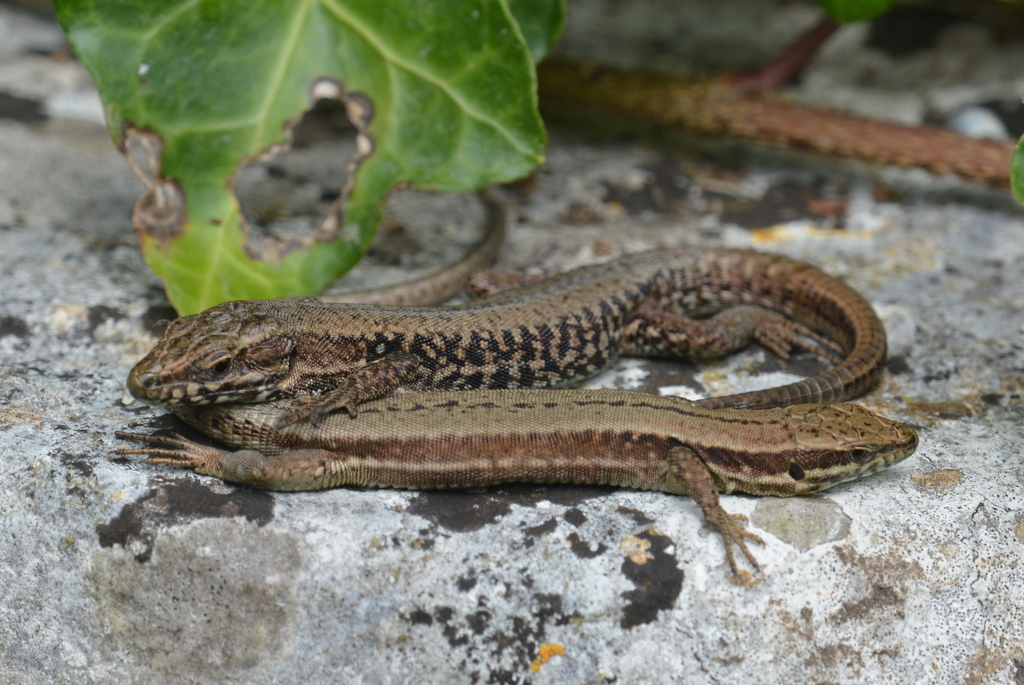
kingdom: Animalia
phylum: Chordata
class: Squamata
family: Lacertidae
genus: Podarcis
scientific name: Podarcis muralis
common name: Common wall lizard
